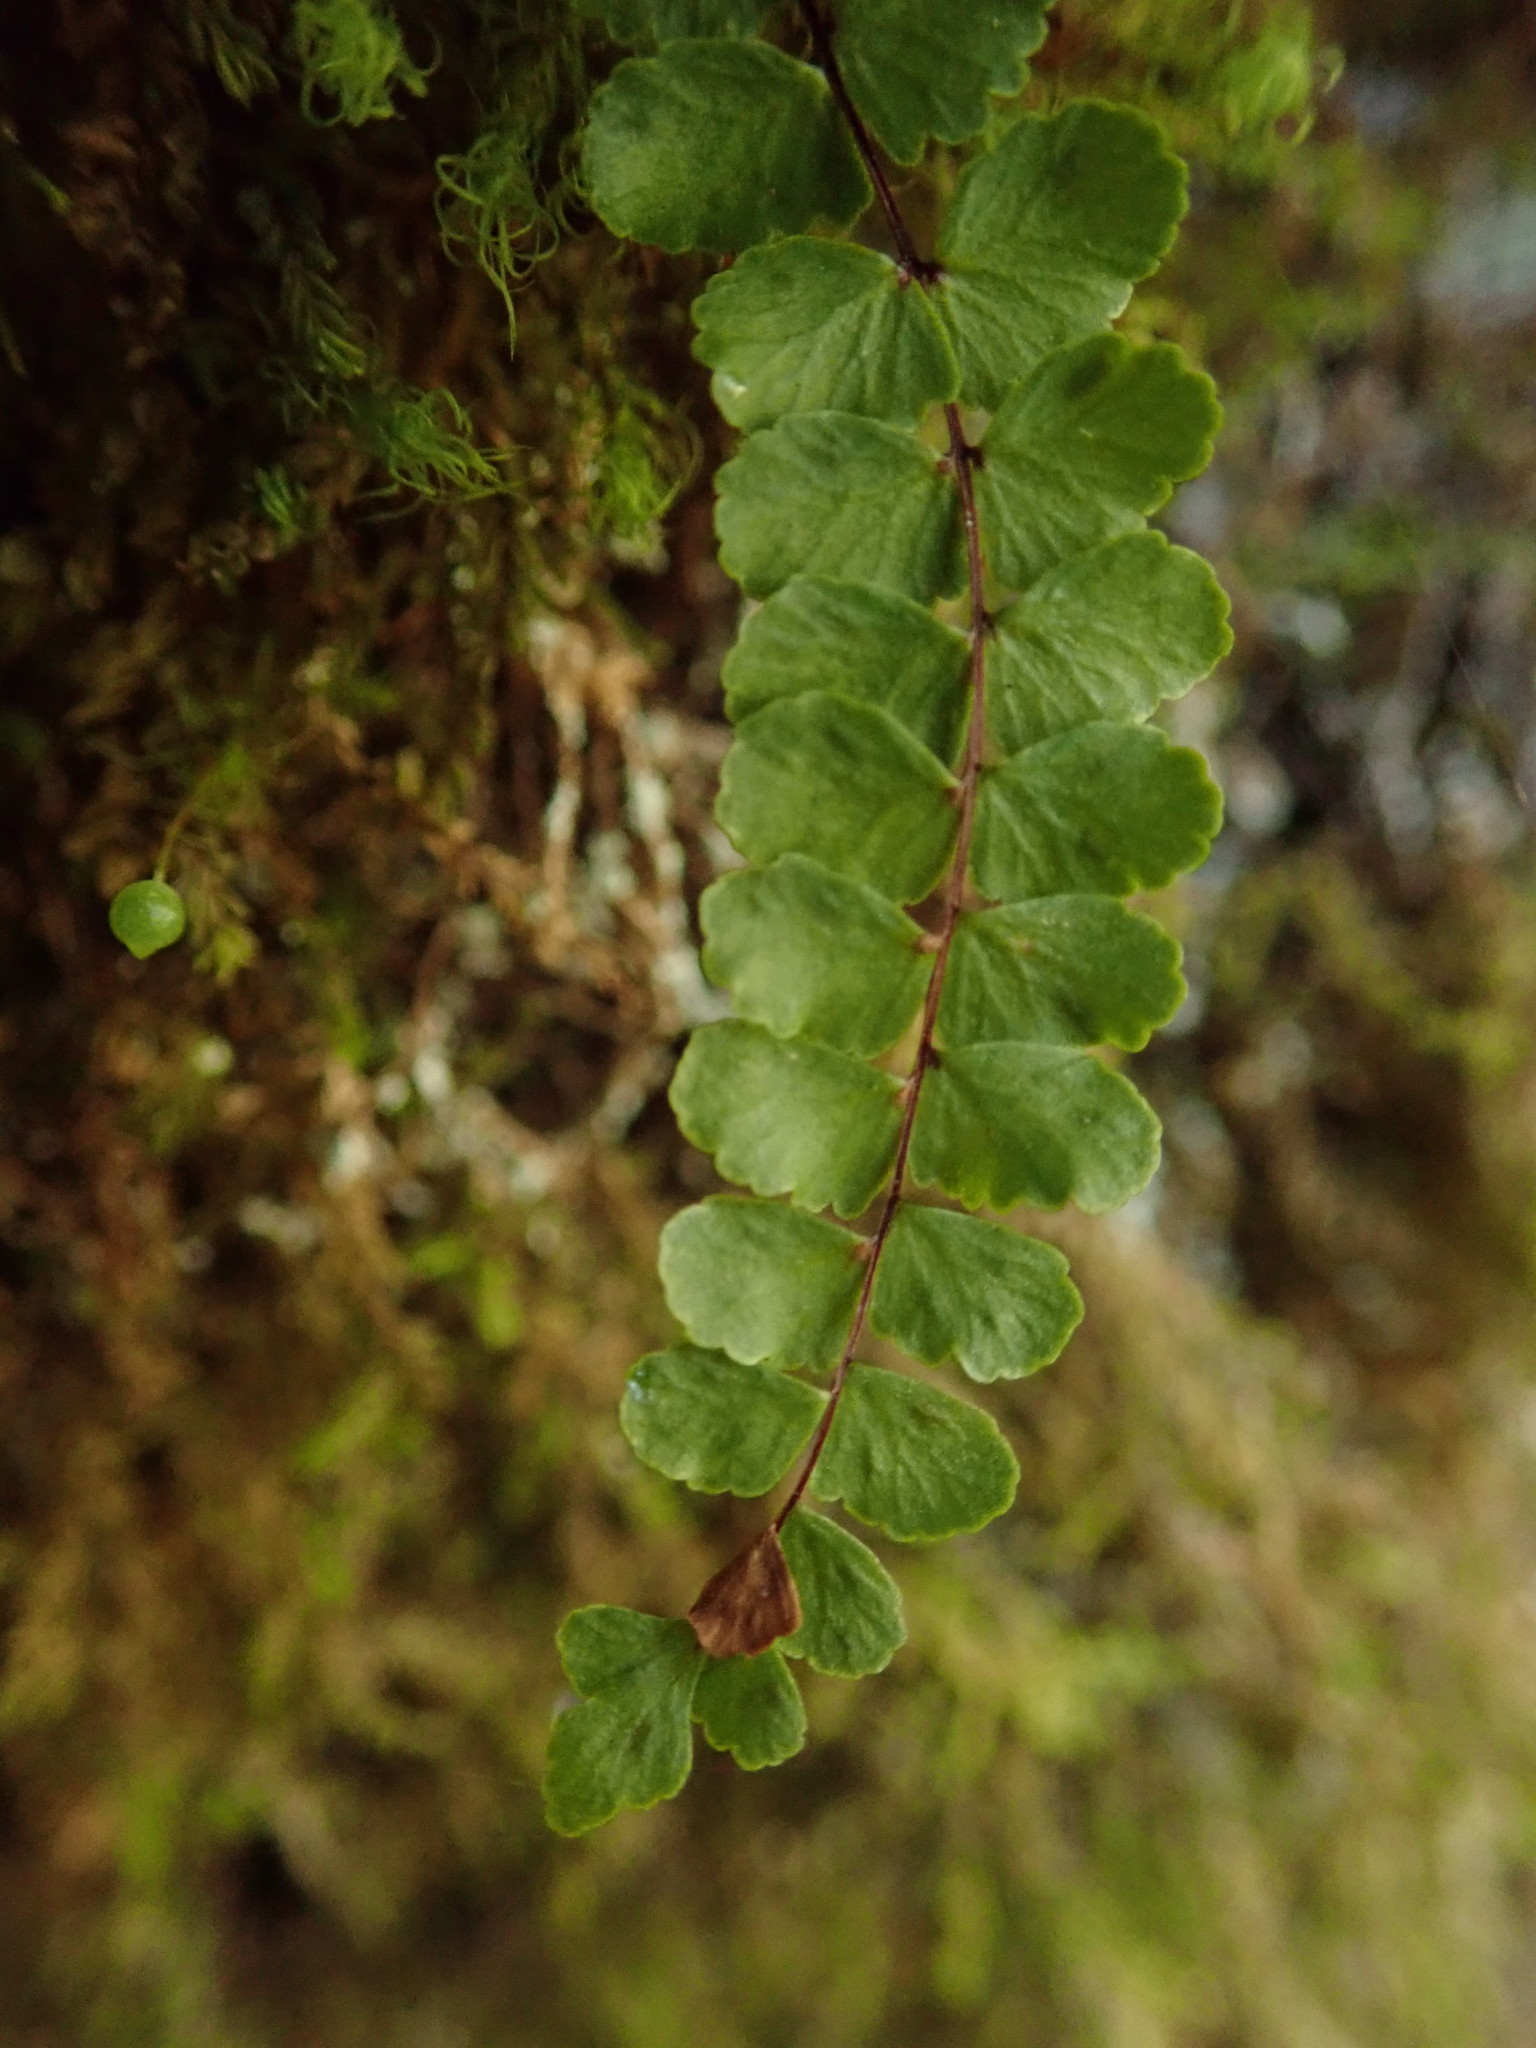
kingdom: Plantae
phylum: Tracheophyta
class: Polypodiopsida
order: Polypodiales
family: Aspleniaceae
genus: Asplenium
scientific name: Asplenium trichomanes
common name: Maidenhair spleenwort
